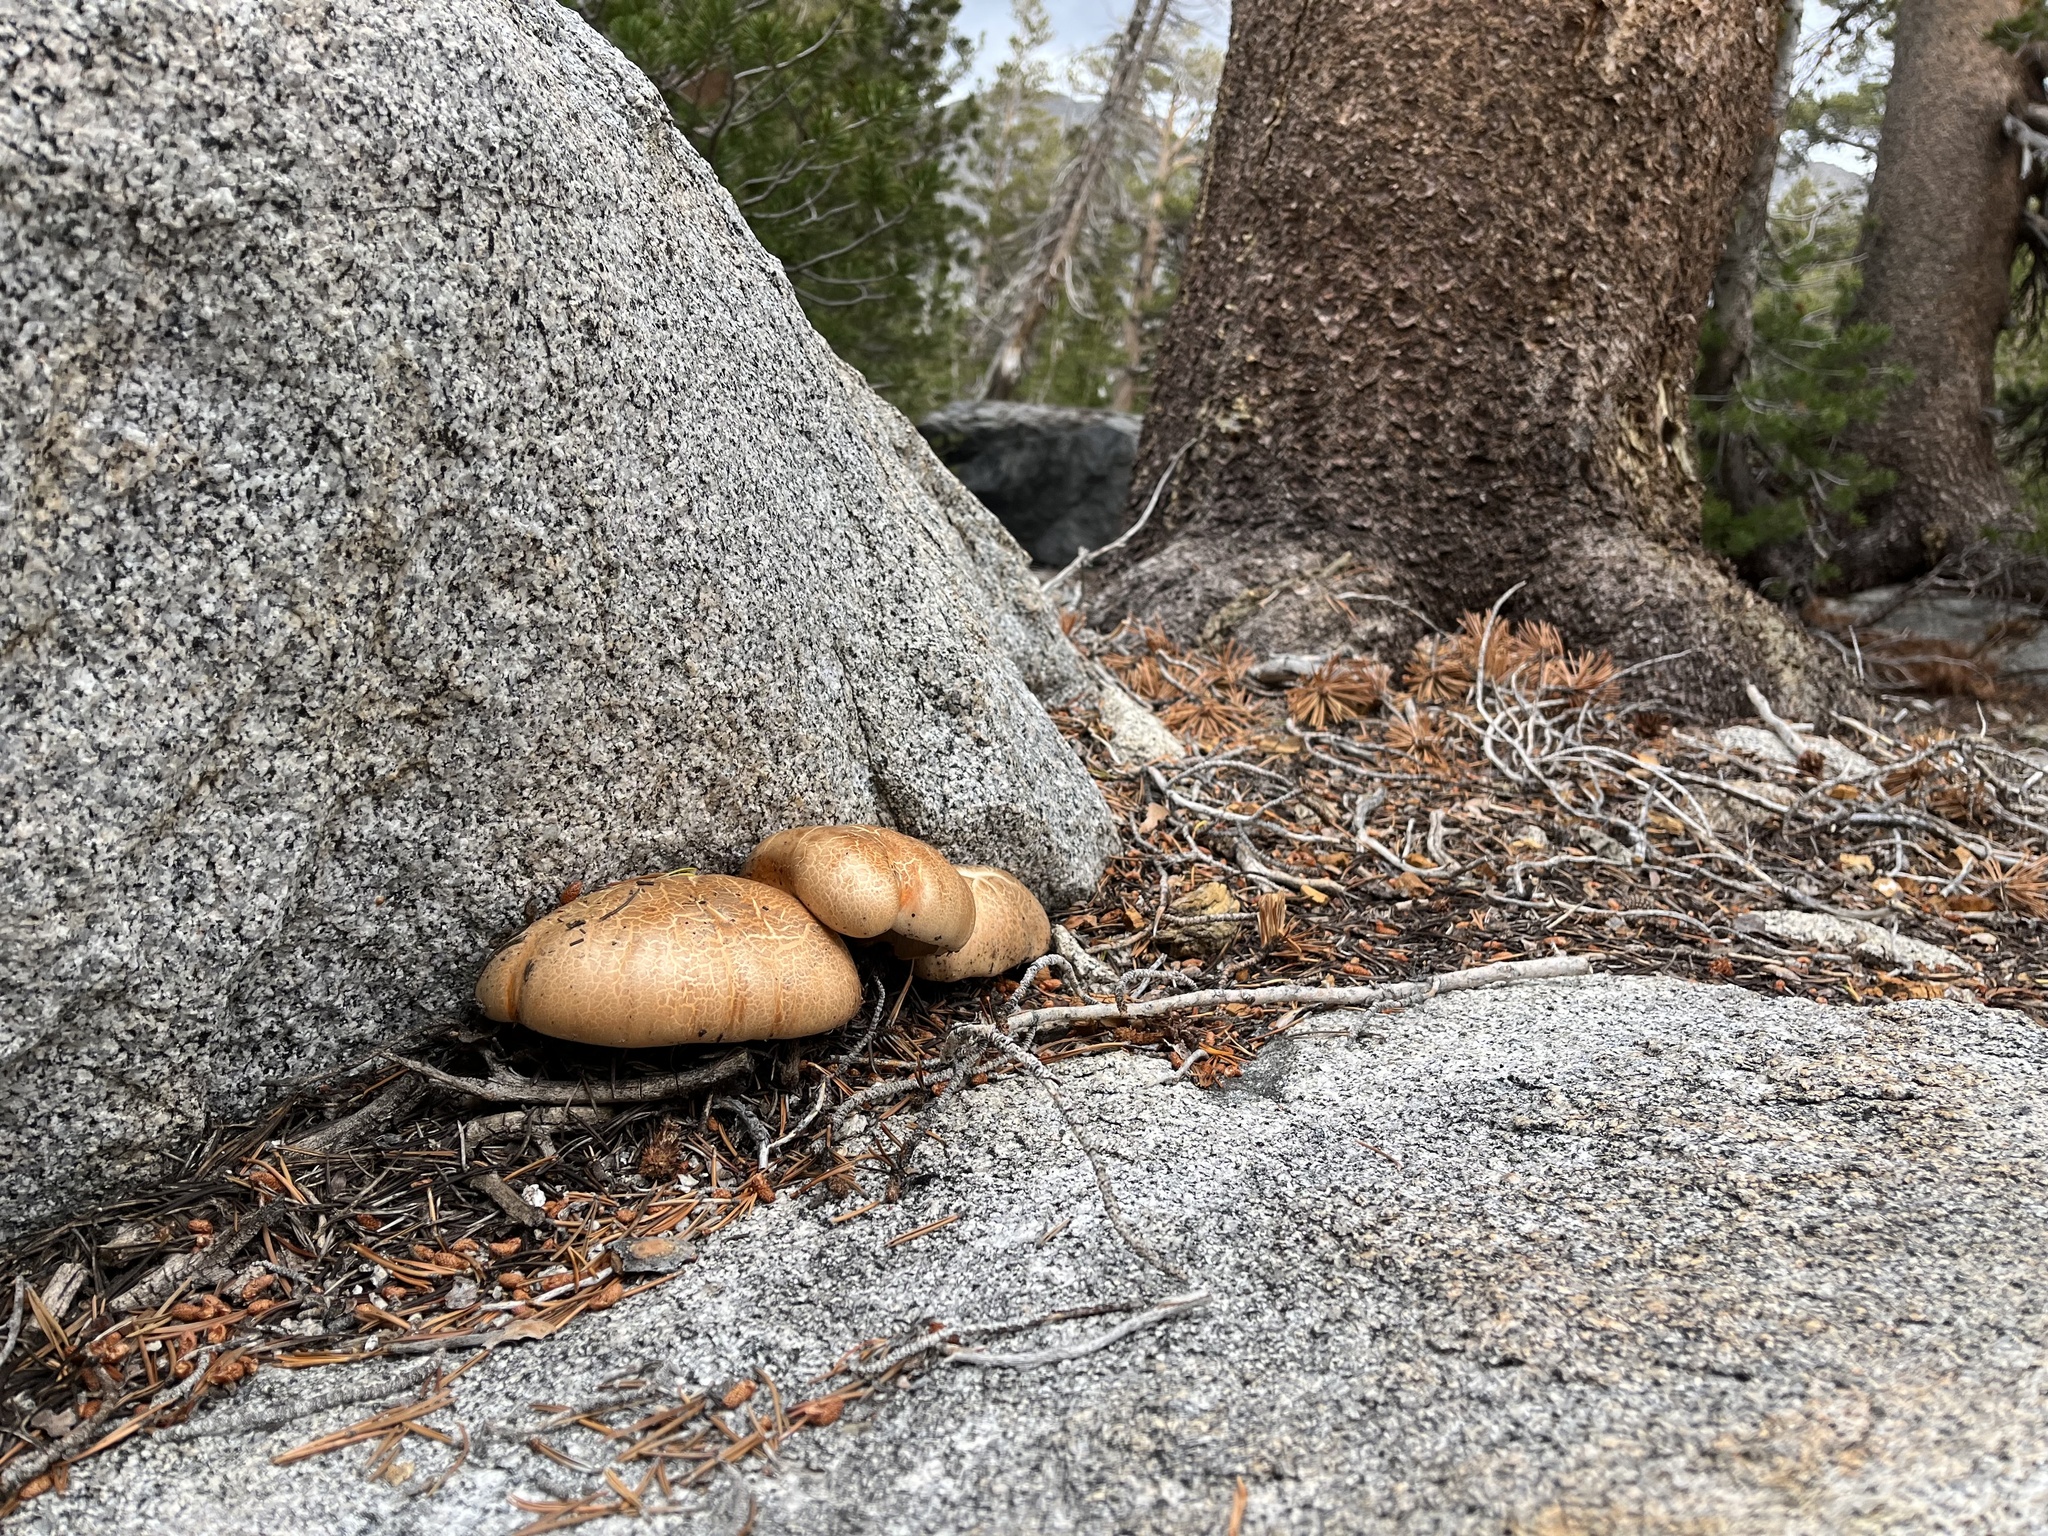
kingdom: Fungi
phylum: Basidiomycota
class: Agaricomycetes
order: Gloeophyllales
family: Gloeophyllaceae
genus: Neolentinus
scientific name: Neolentinus ponderosus
